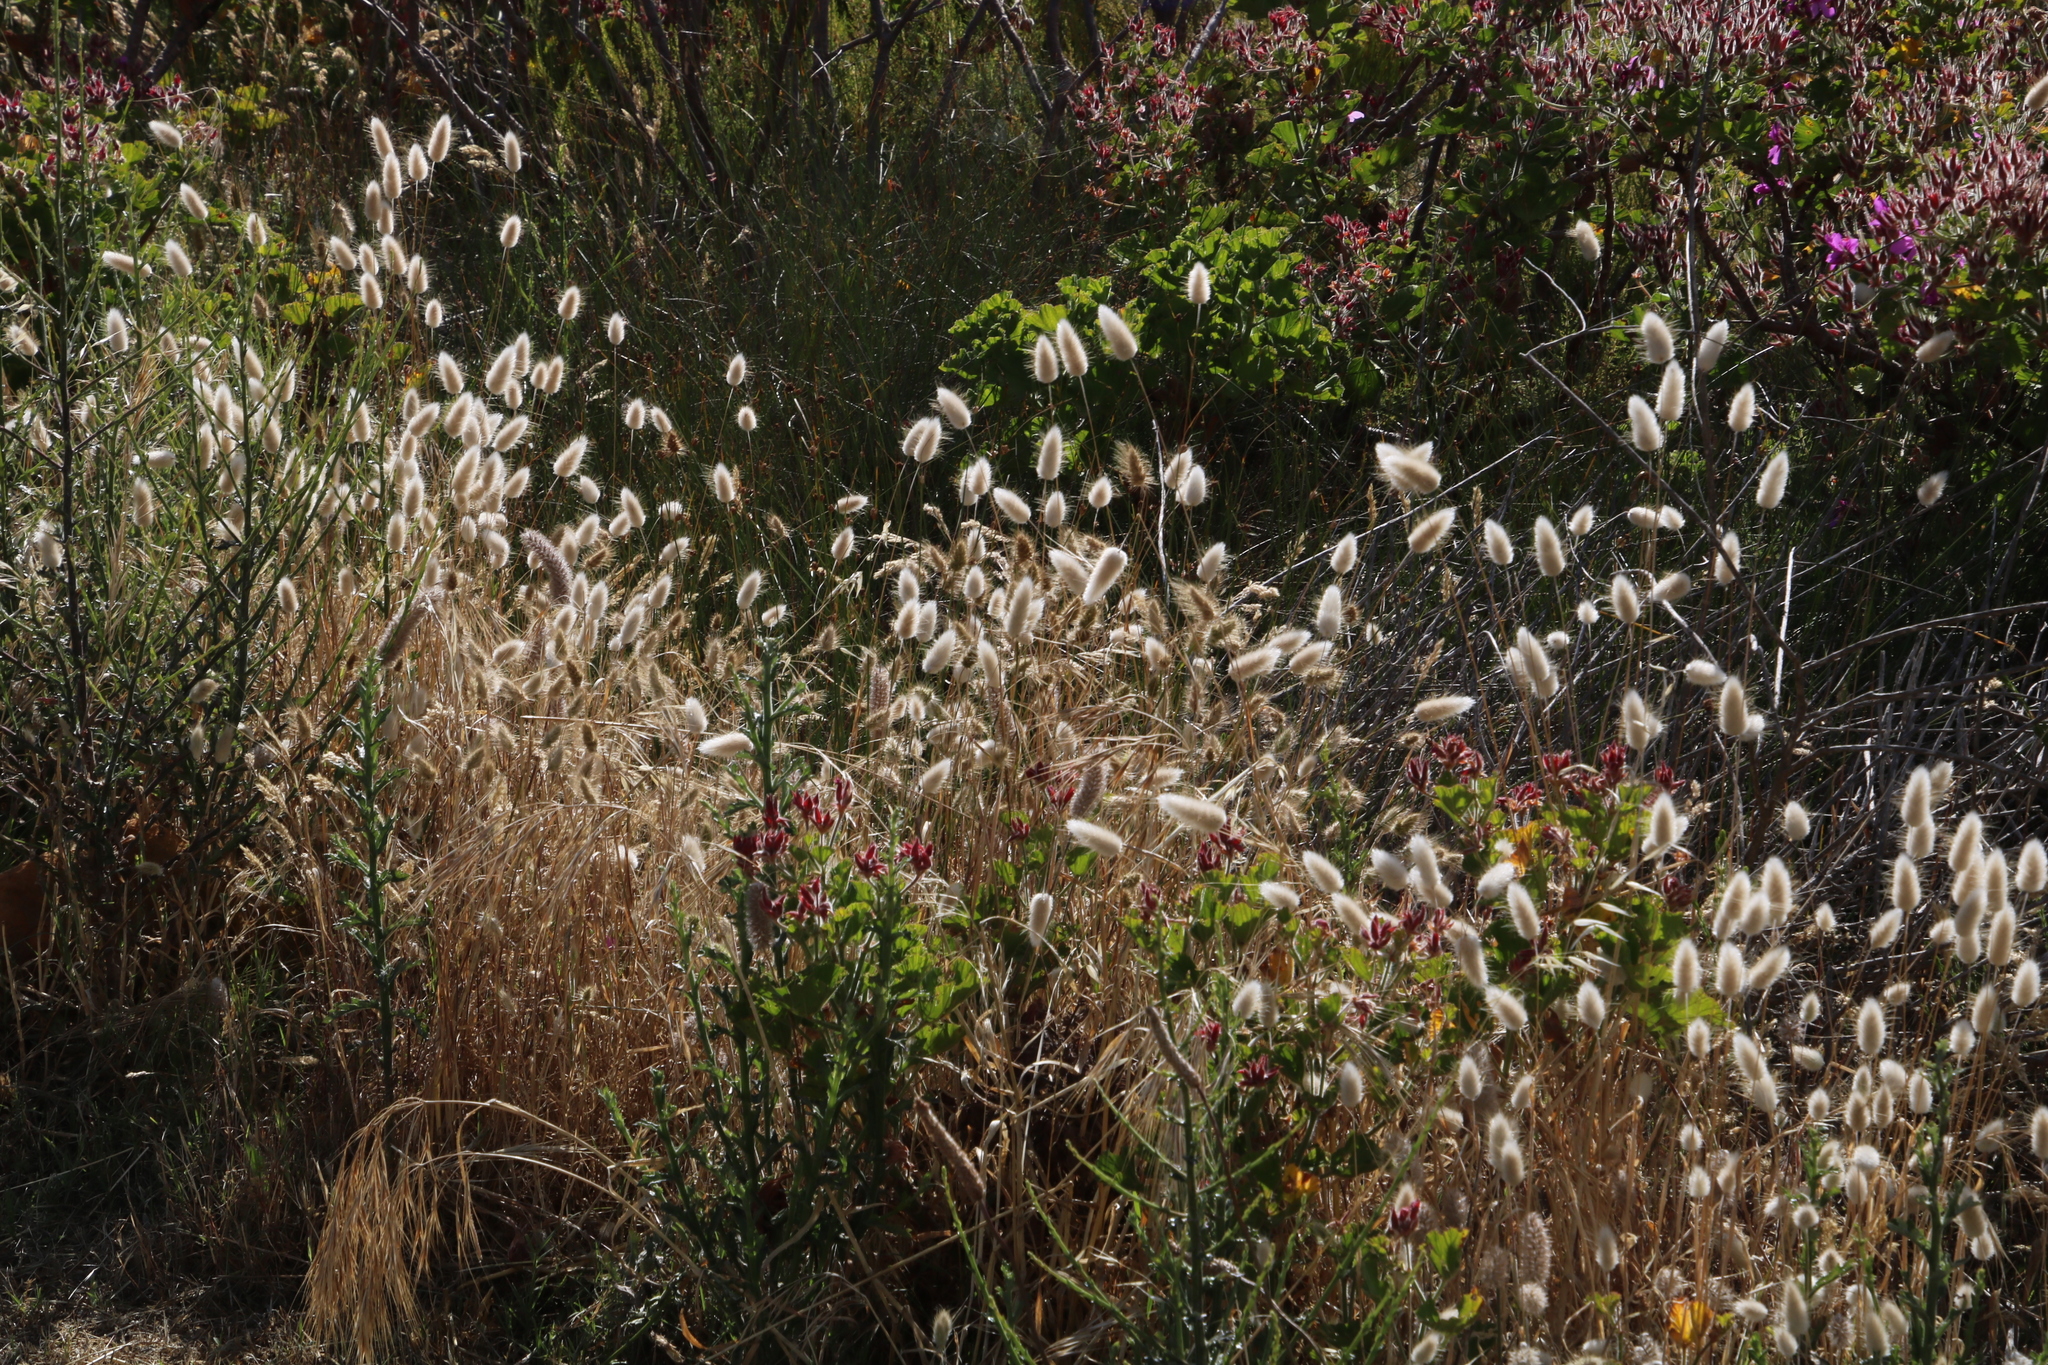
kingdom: Plantae
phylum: Tracheophyta
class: Liliopsida
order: Poales
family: Poaceae
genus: Lagurus
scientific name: Lagurus ovatus
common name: Hare's-tail
